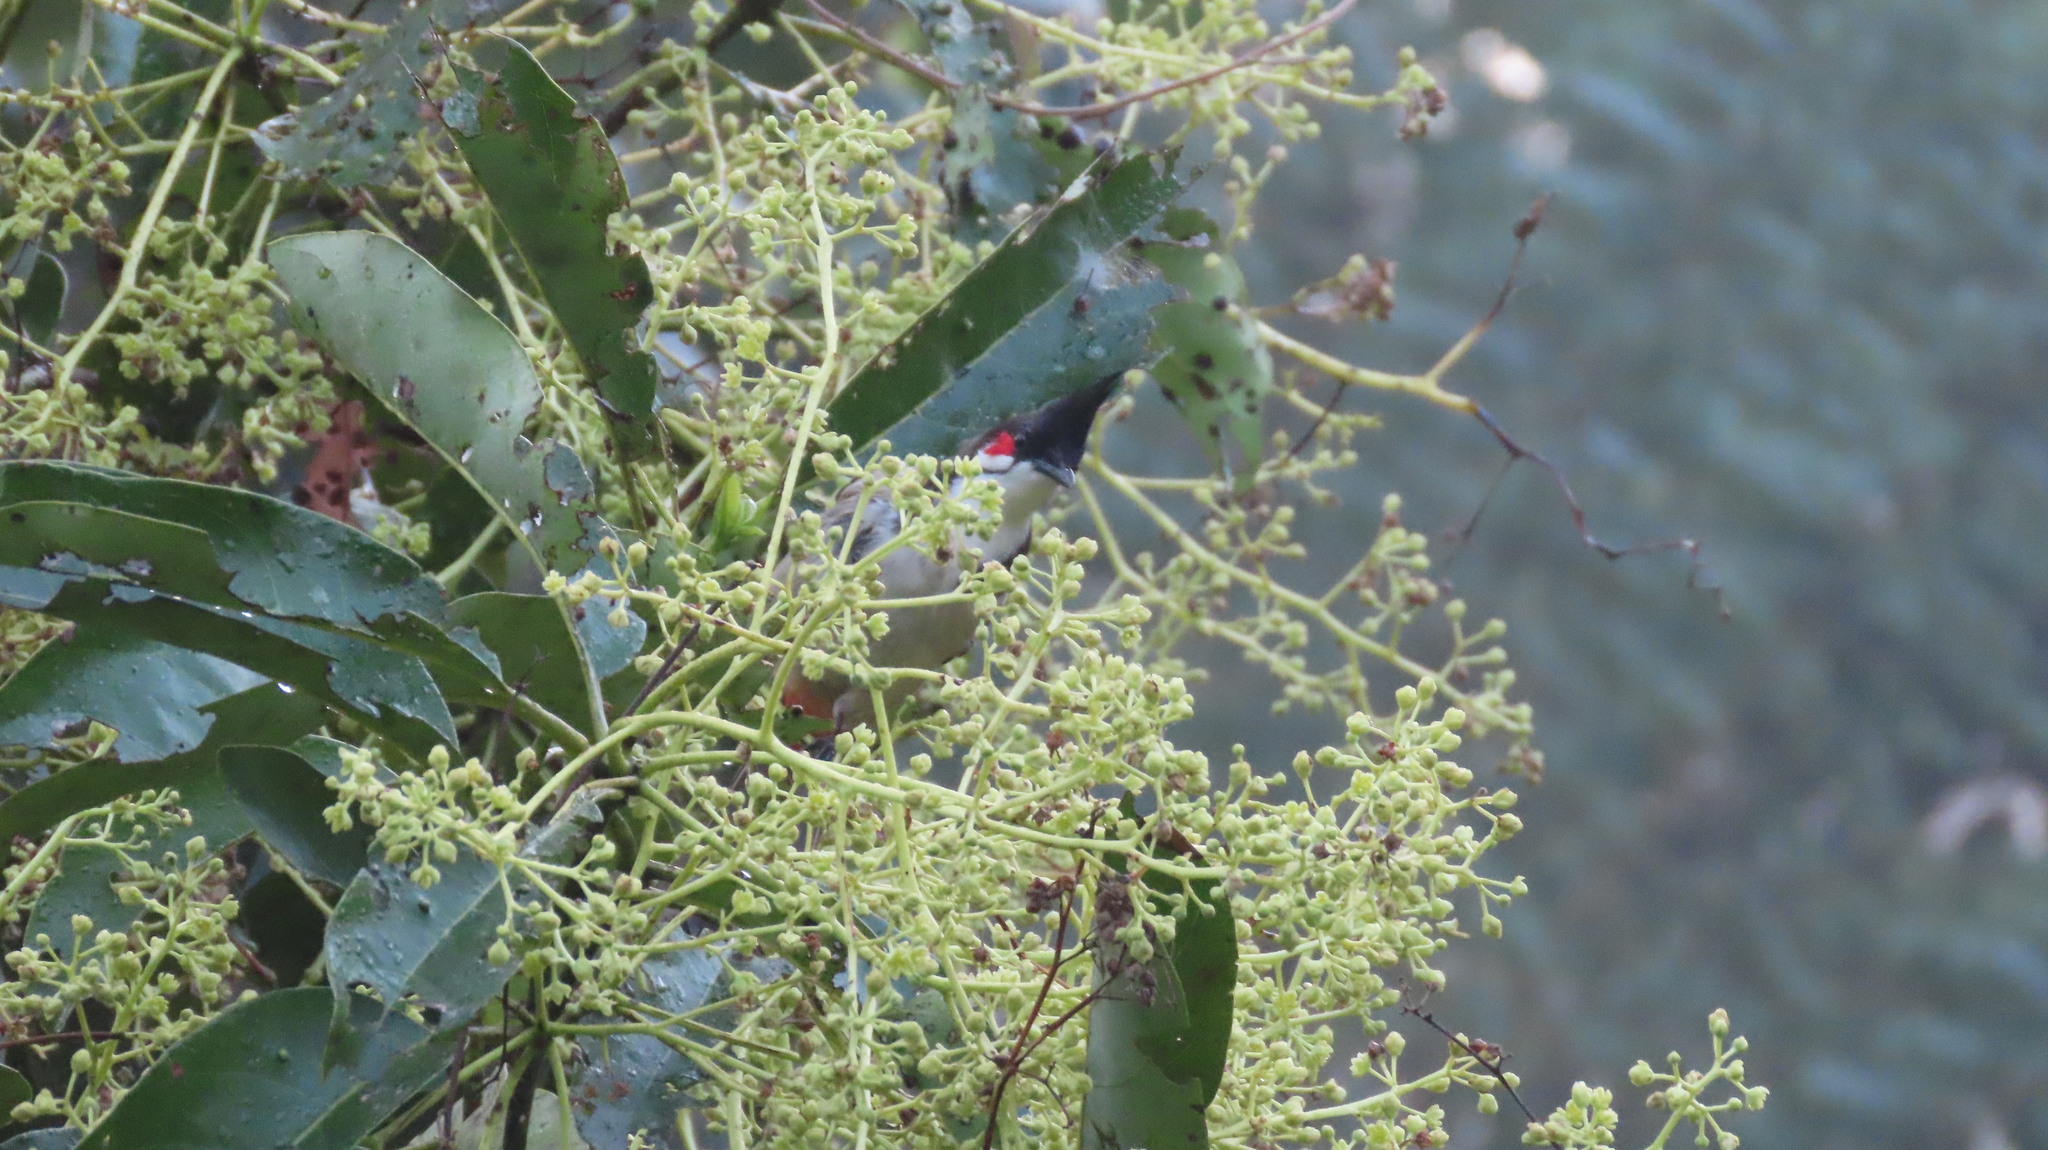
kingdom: Animalia
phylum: Chordata
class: Aves
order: Passeriformes
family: Pycnonotidae
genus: Pycnonotus
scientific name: Pycnonotus jocosus
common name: Red-whiskered bulbul
